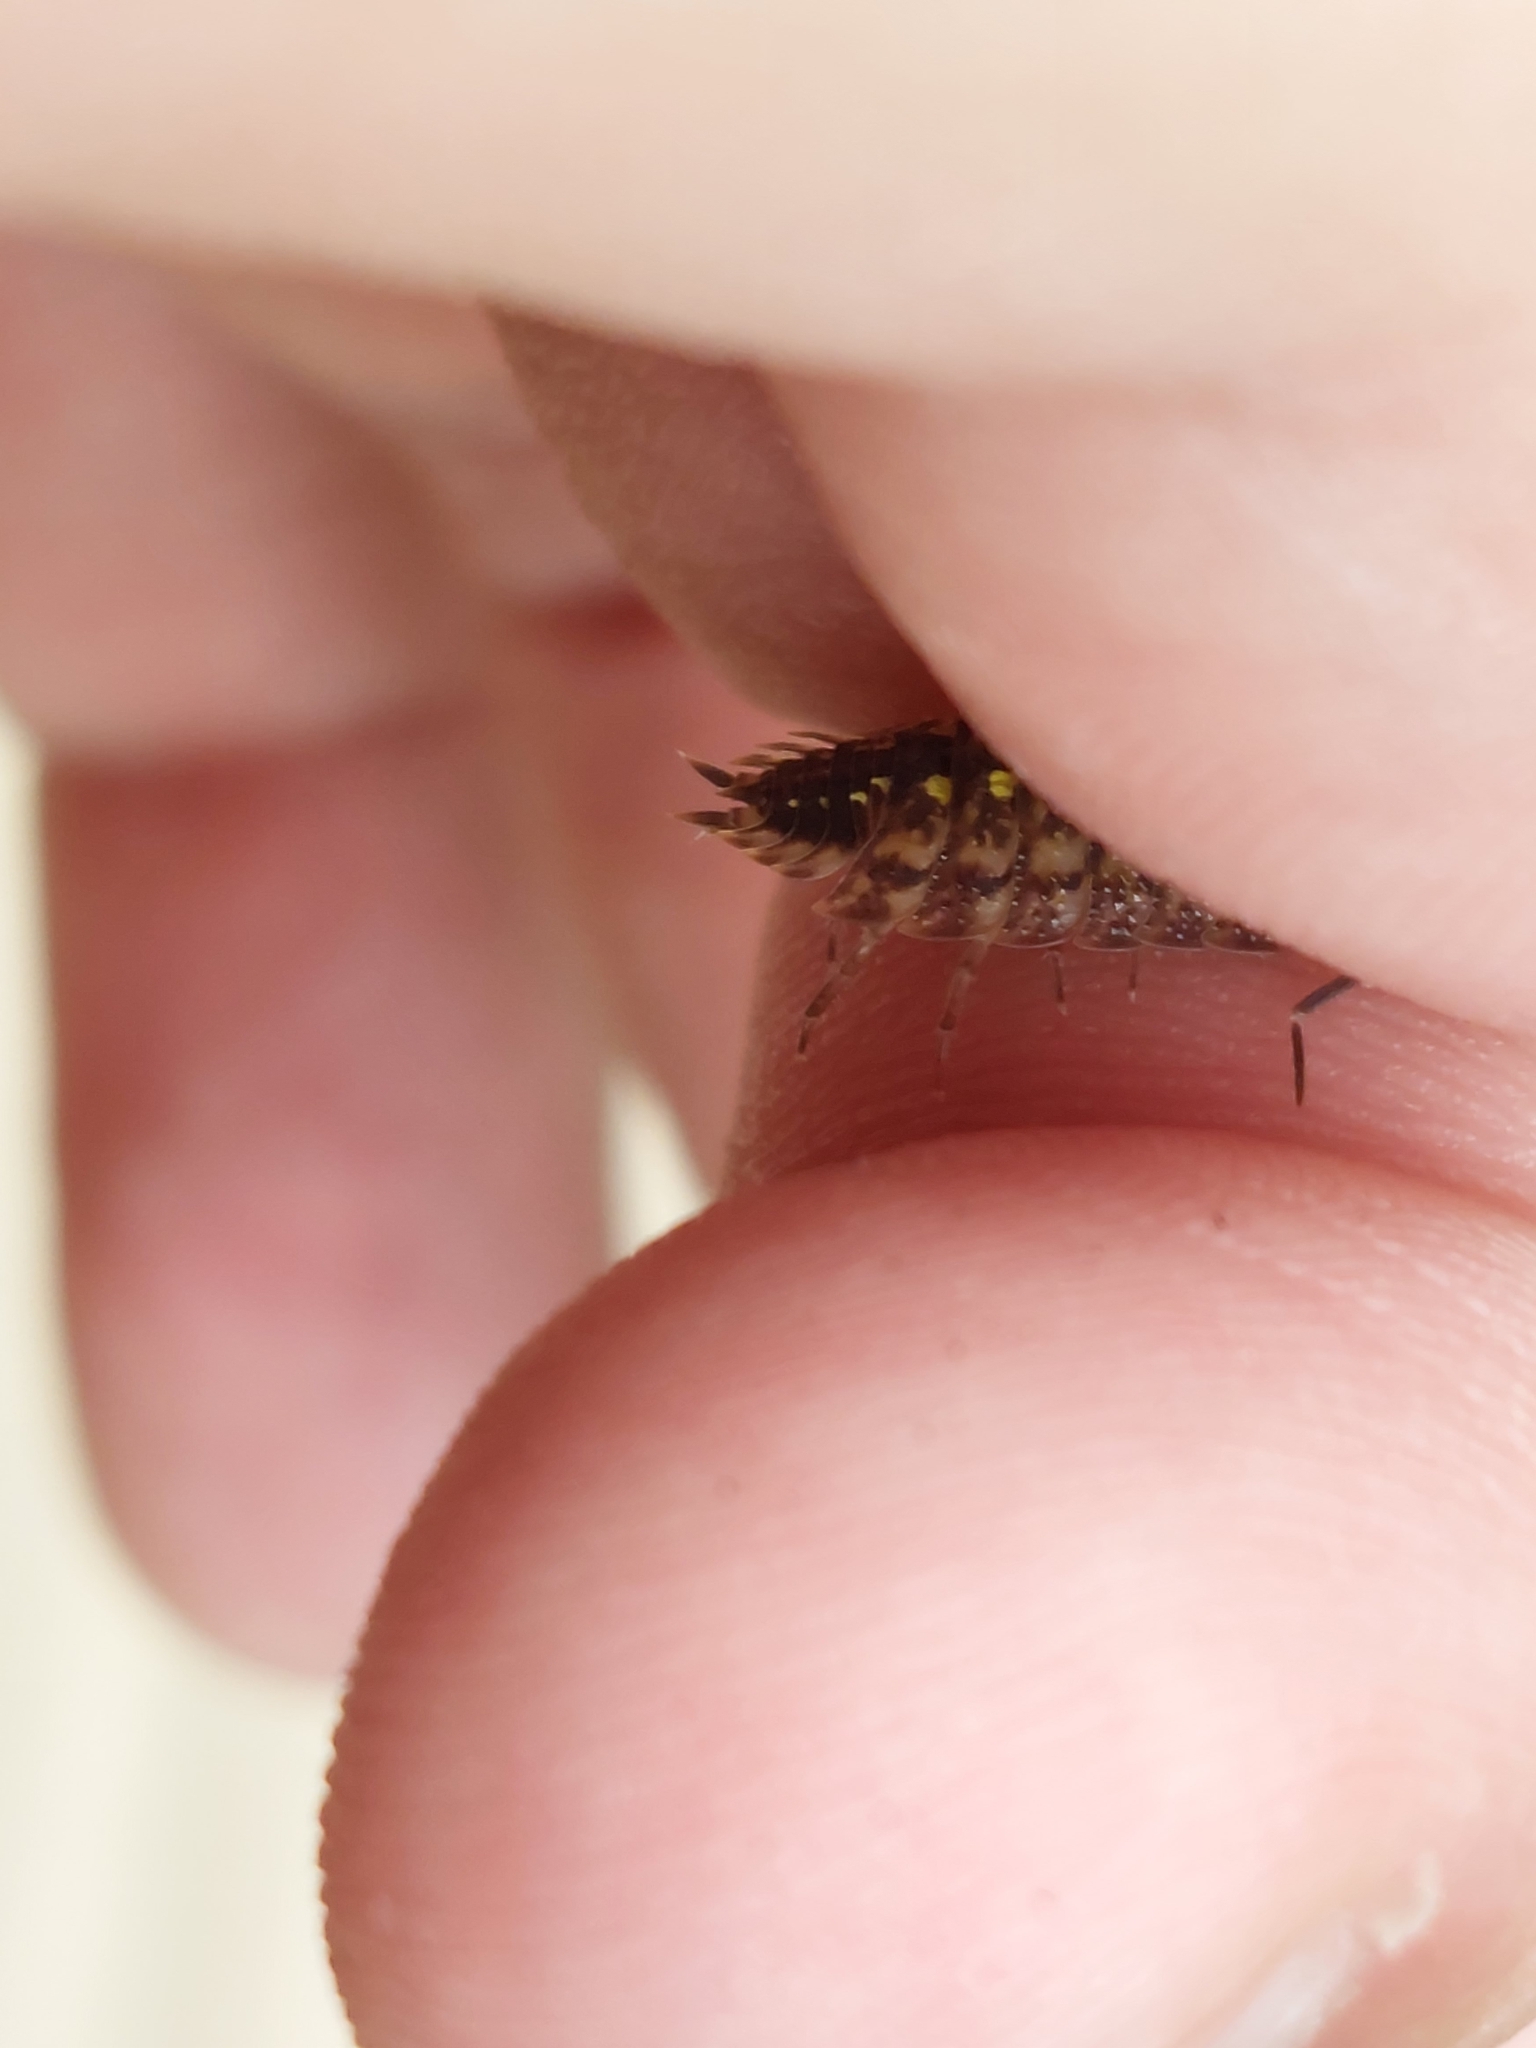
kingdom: Animalia
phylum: Arthropoda
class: Malacostraca
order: Isopoda
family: Porcellionidae
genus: Porcellio
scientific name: Porcellio spinicornis
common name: Painted woodlouse
